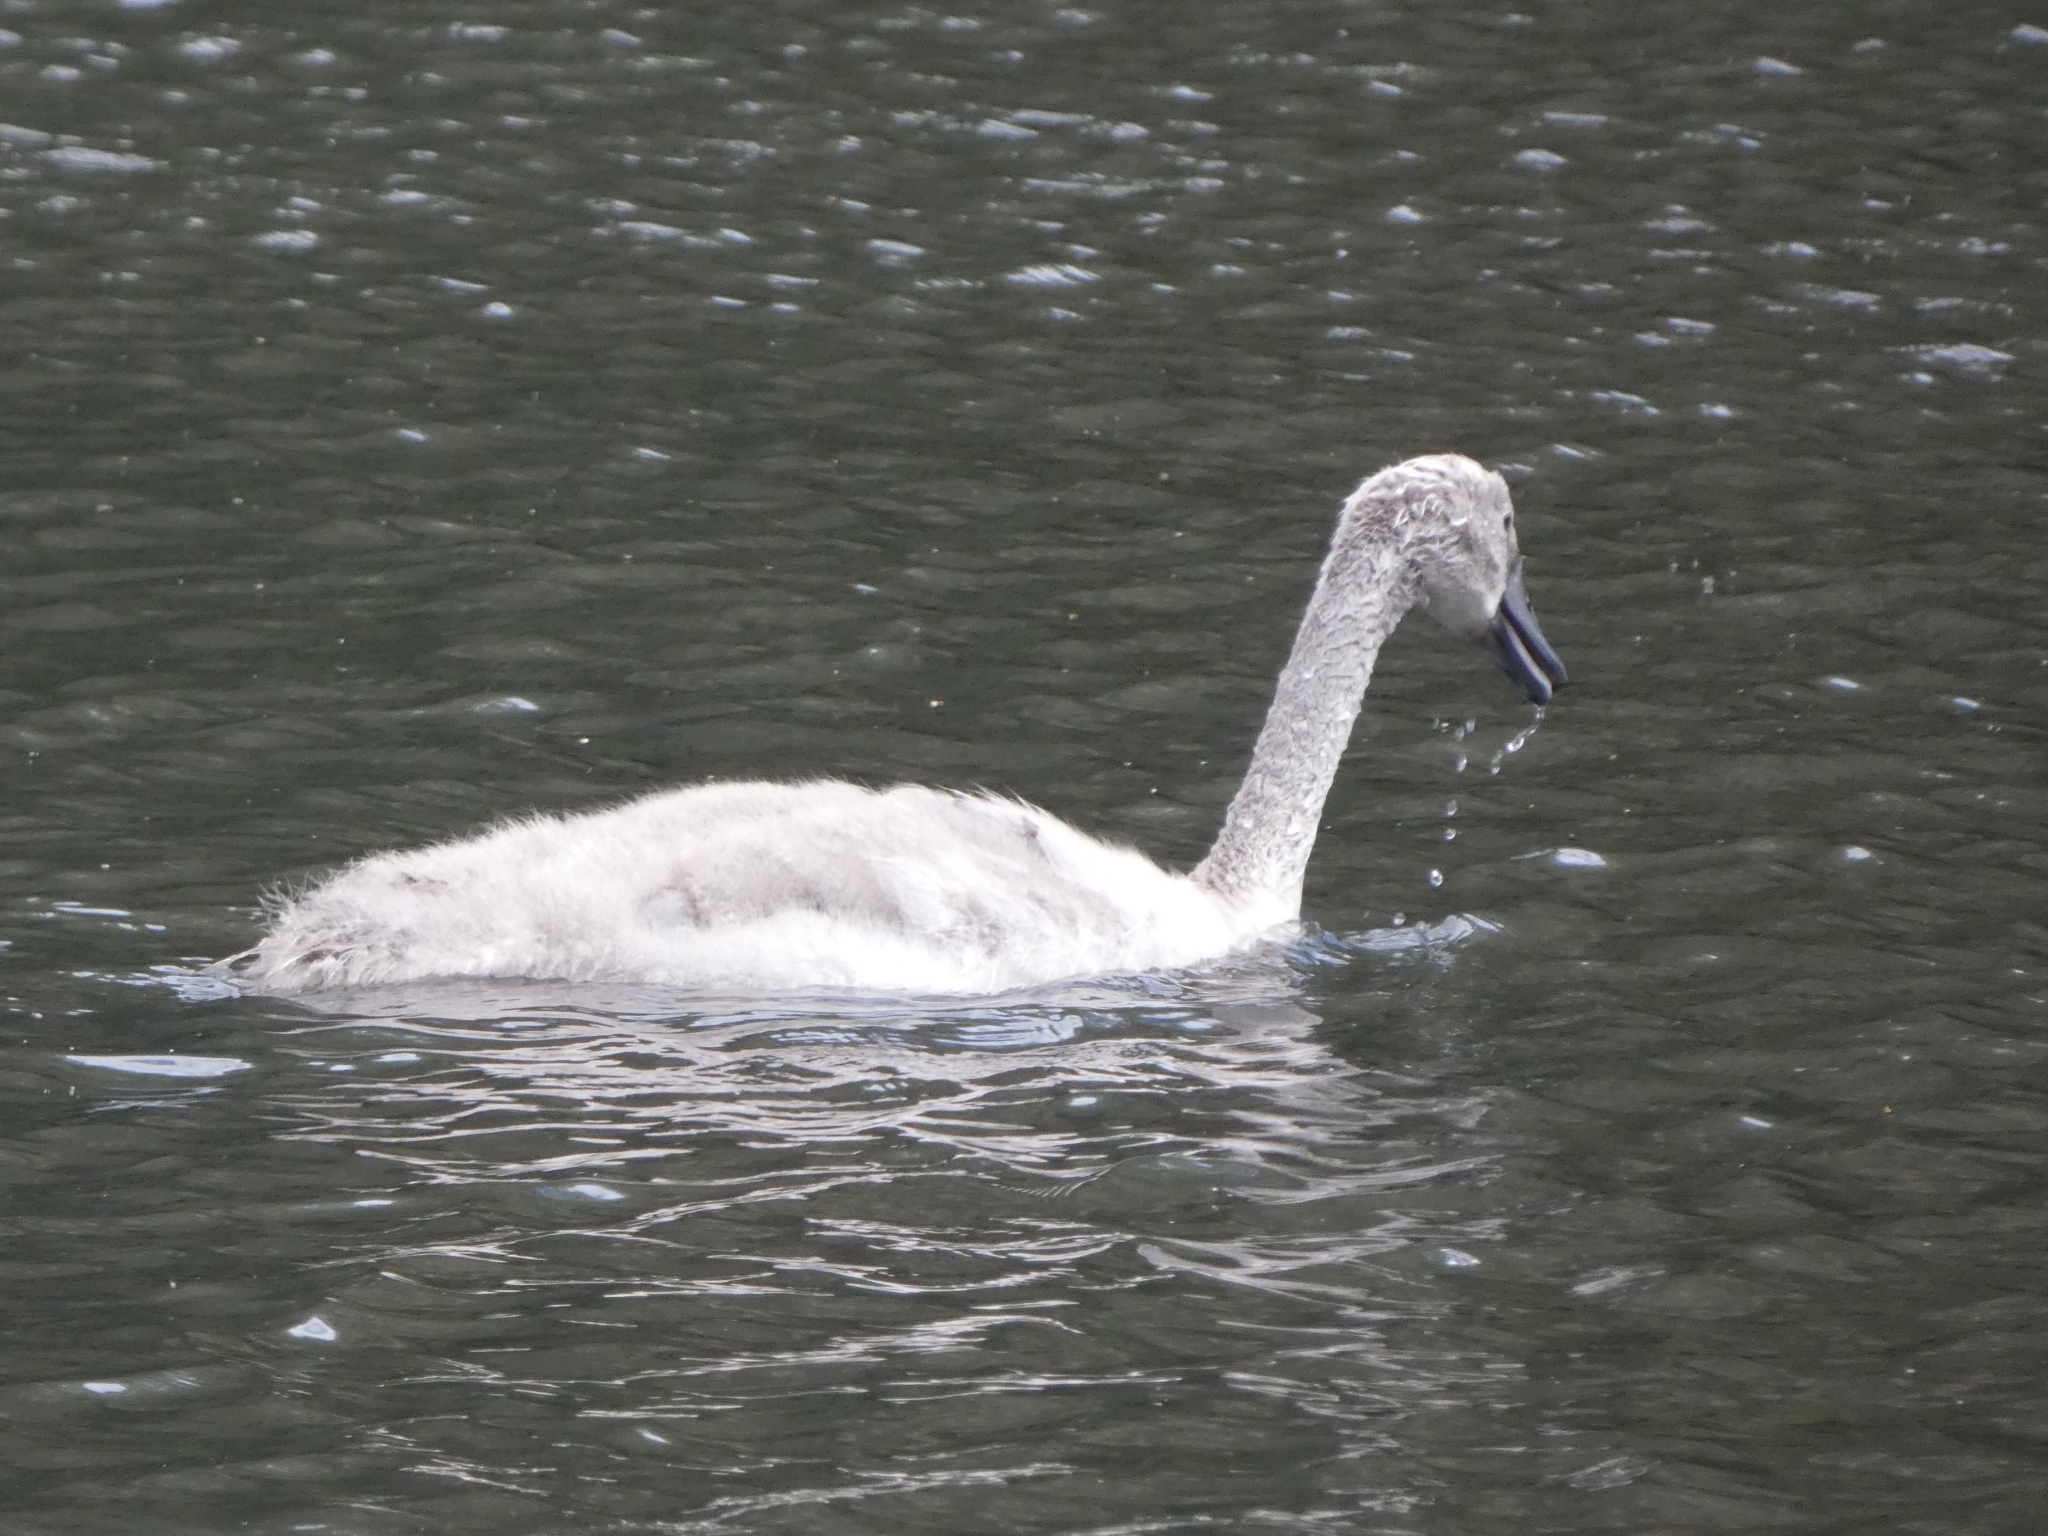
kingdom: Animalia
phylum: Chordata
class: Aves
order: Anseriformes
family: Anatidae
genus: Cygnus
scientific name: Cygnus olor
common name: Mute swan
